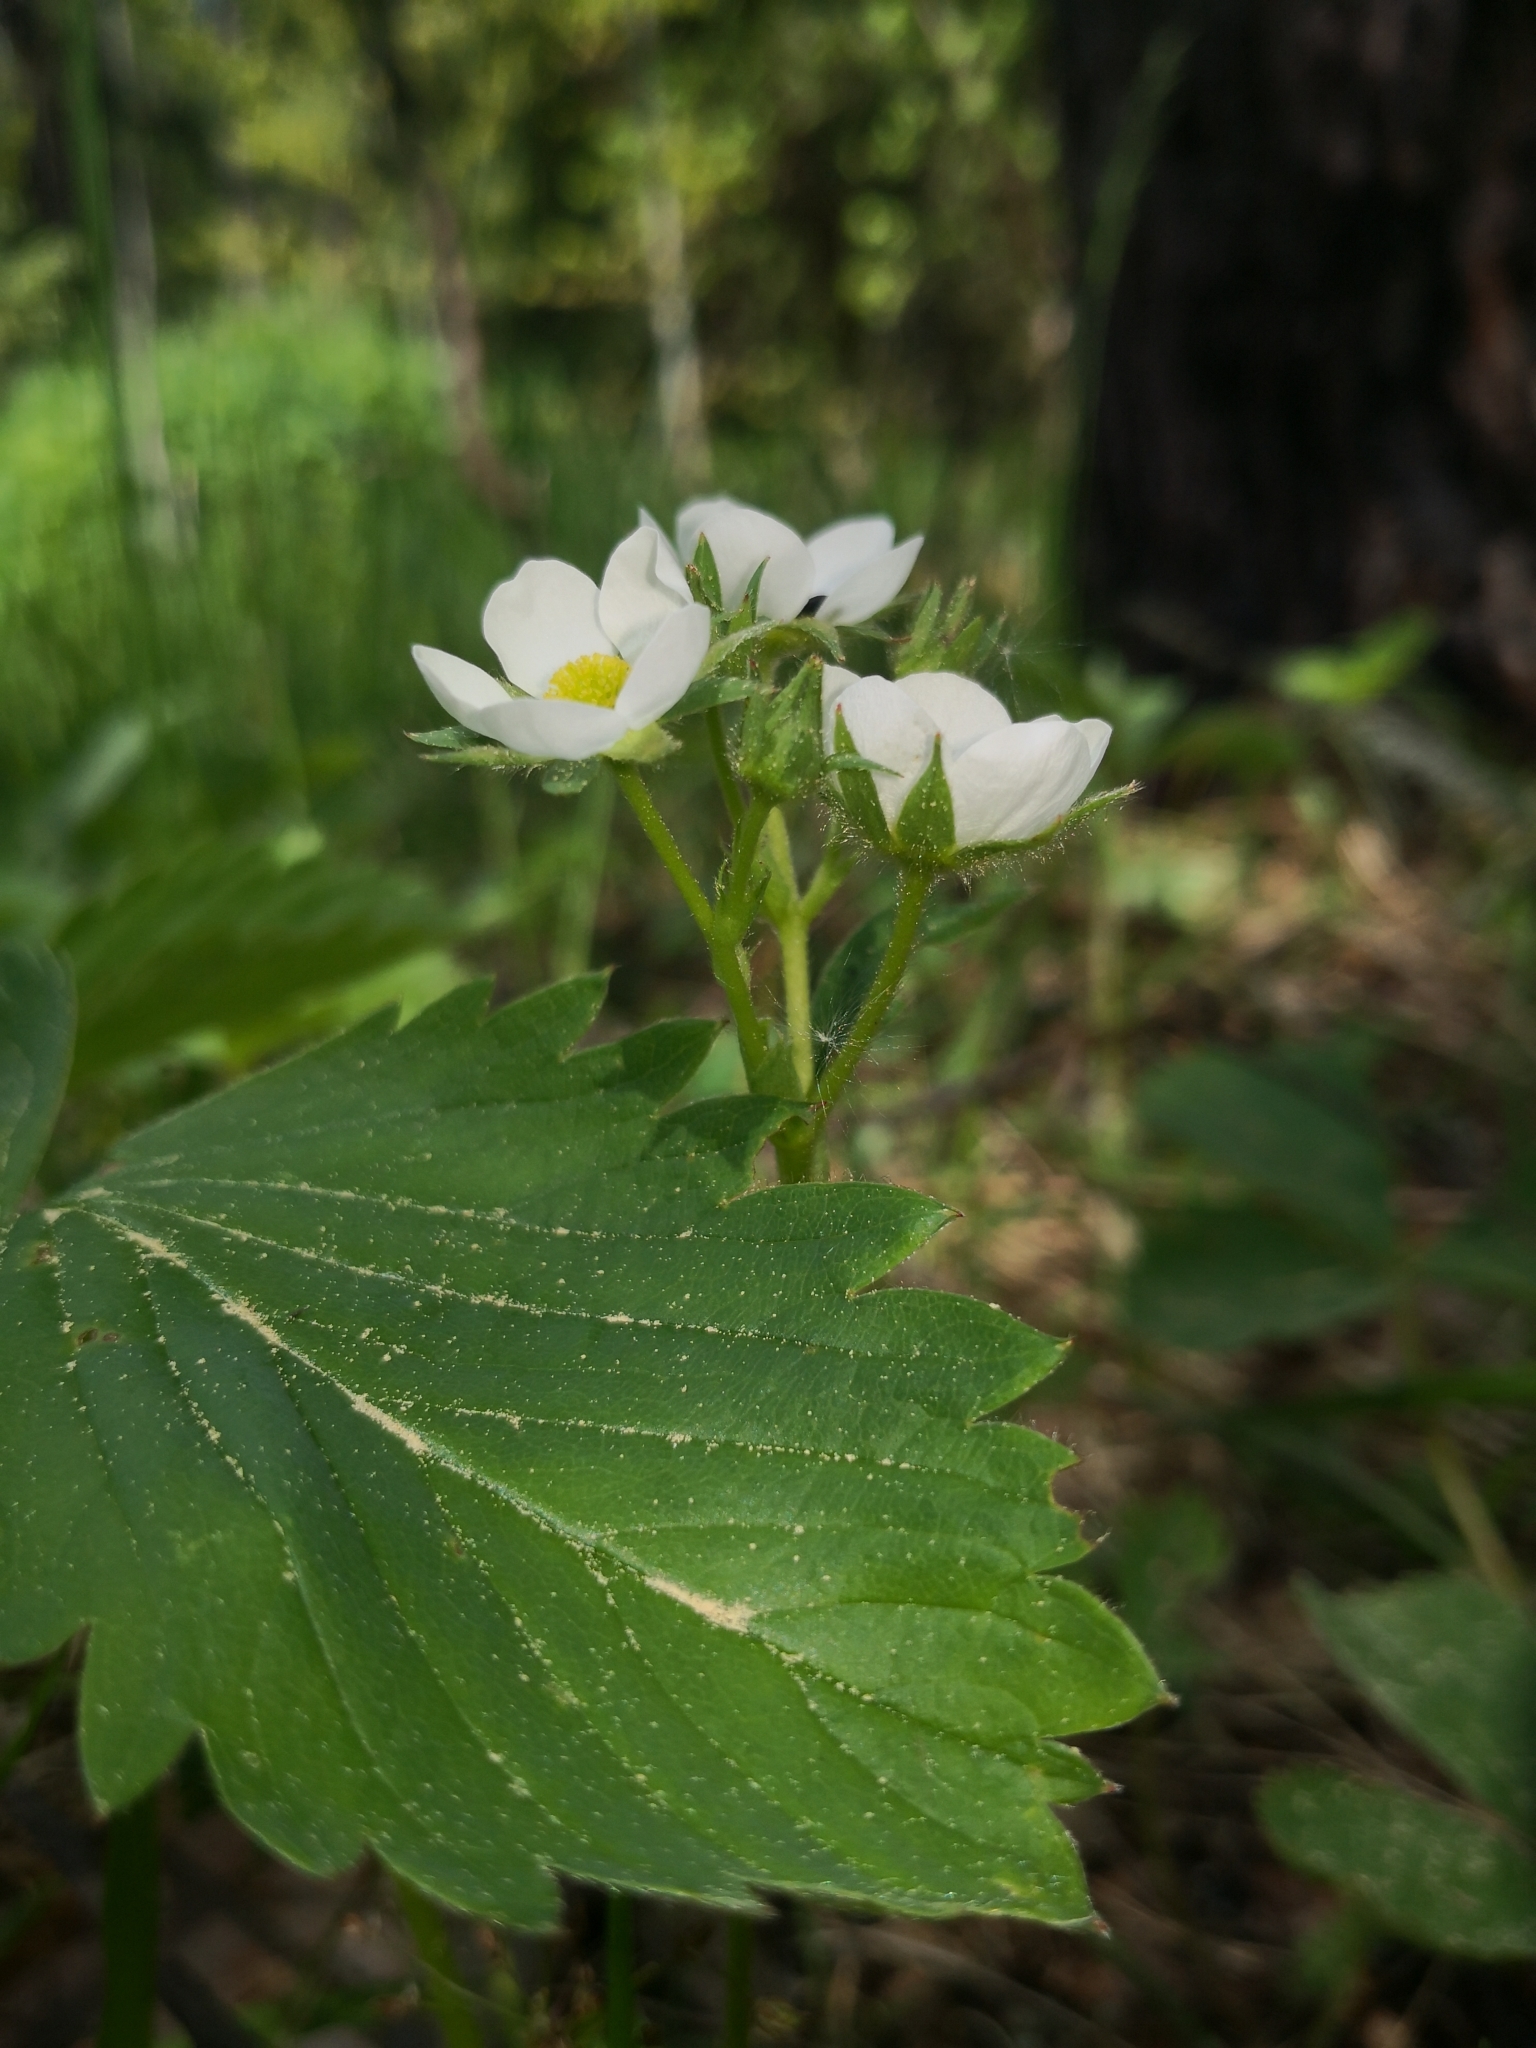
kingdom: Plantae
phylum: Tracheophyta
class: Magnoliopsida
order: Rosales
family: Rosaceae
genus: Fragaria
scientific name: Fragaria ananassa
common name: Garden strawberry
